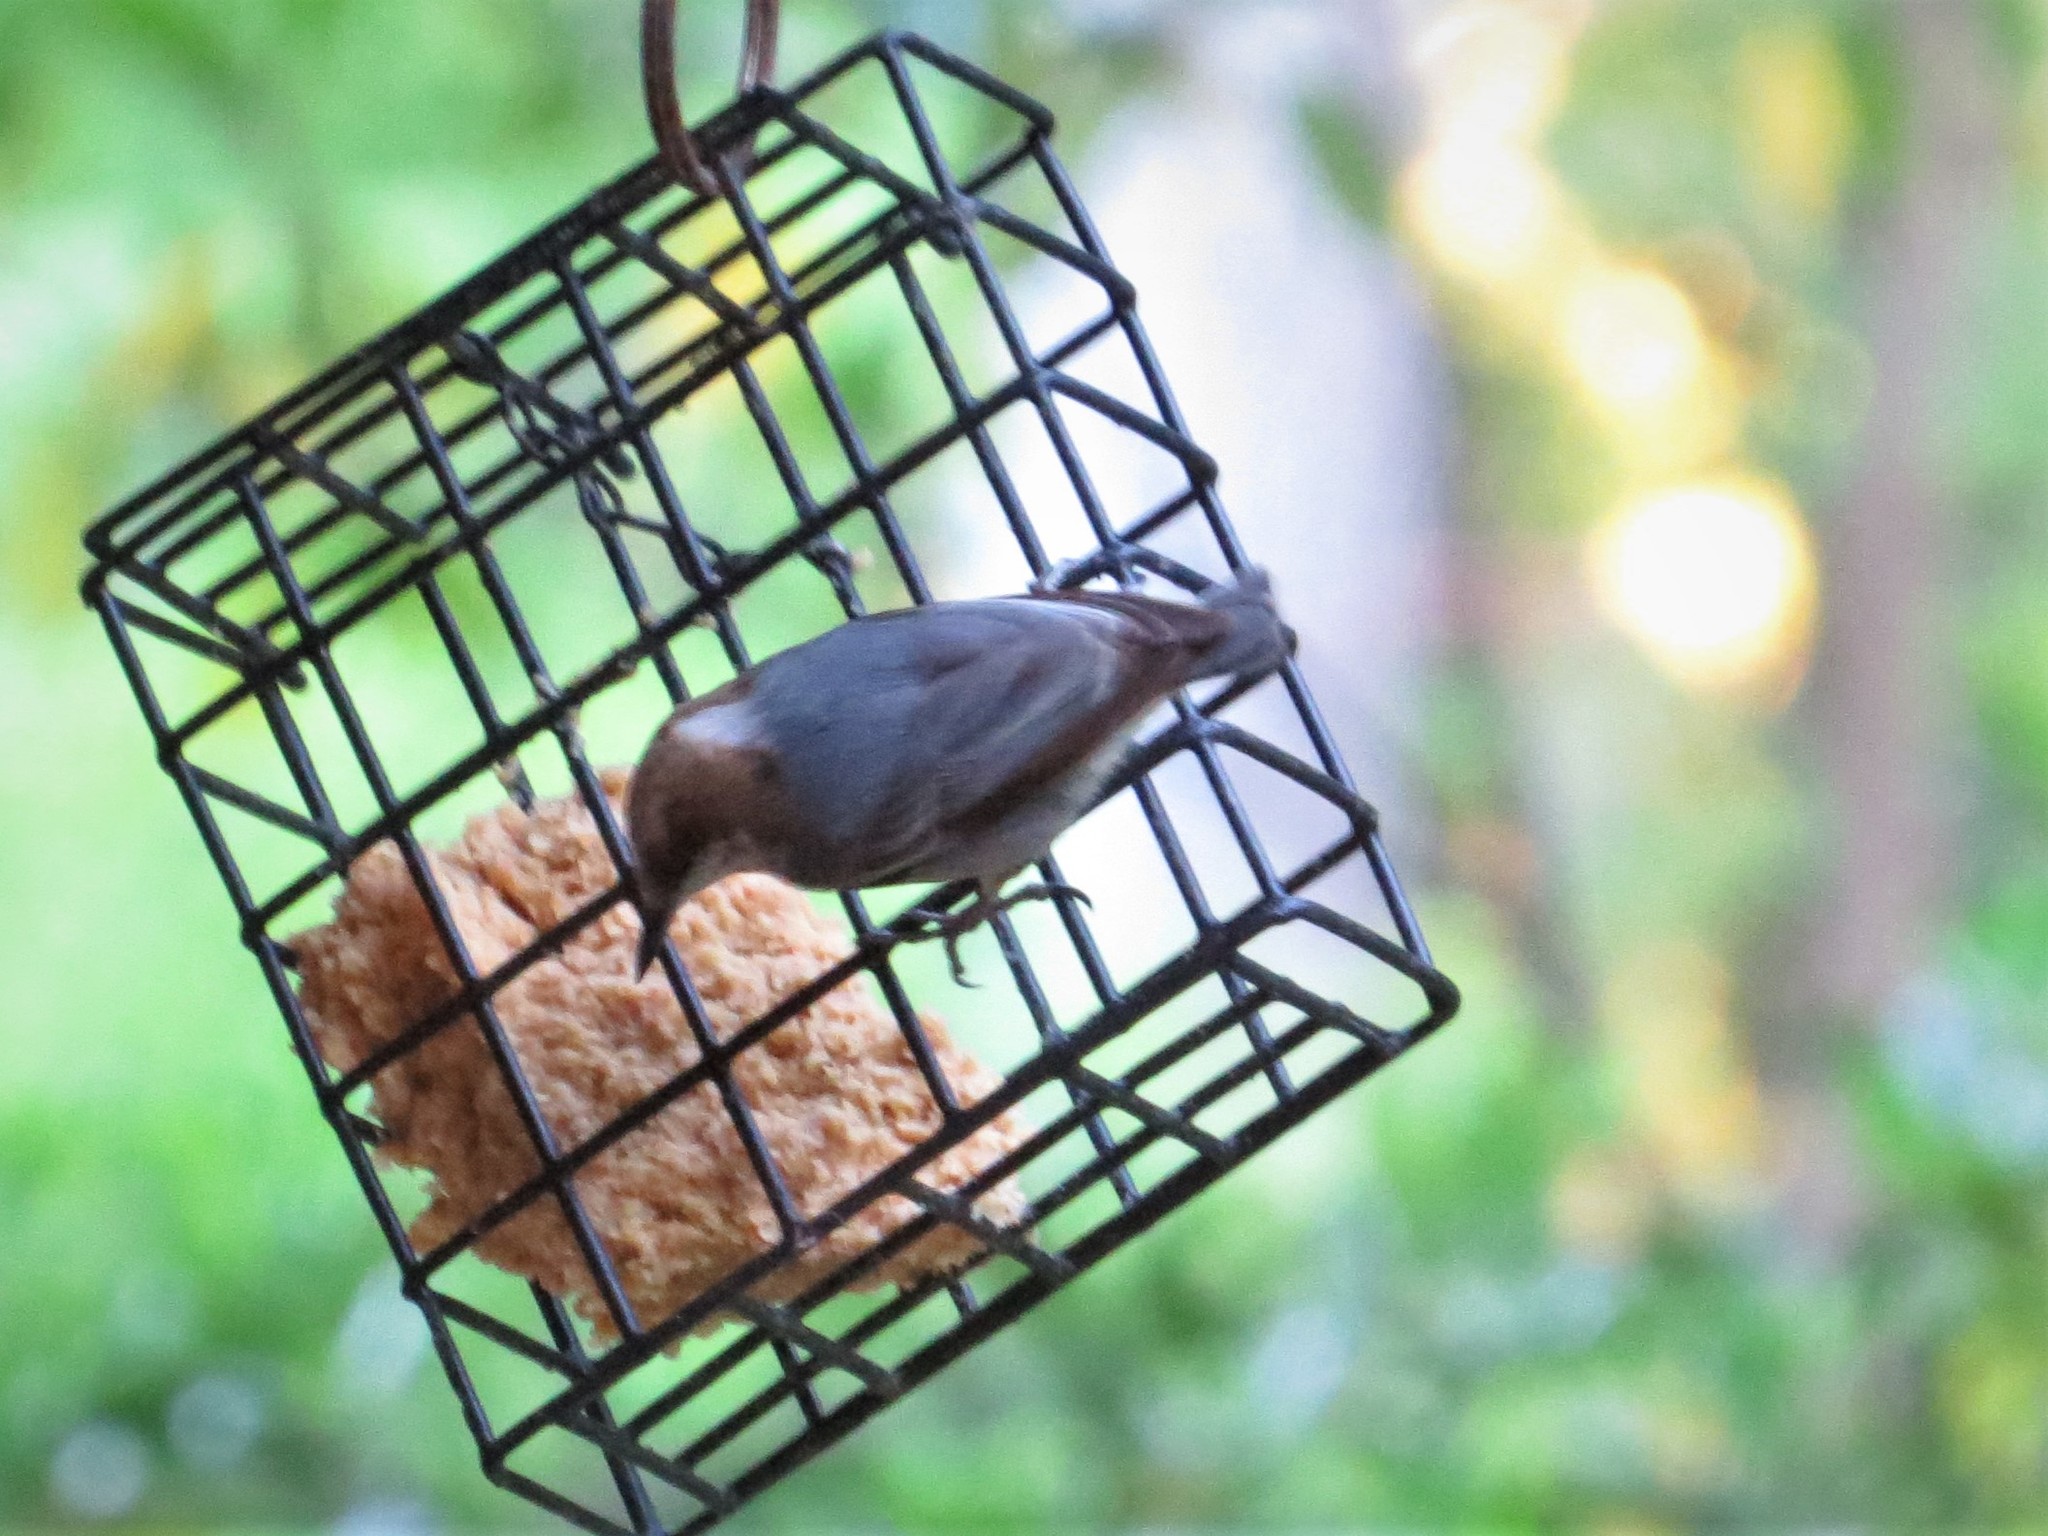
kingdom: Animalia
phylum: Chordata
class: Aves
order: Passeriformes
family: Sittidae
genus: Sitta
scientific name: Sitta pusilla
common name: Brown-headed nuthatch
